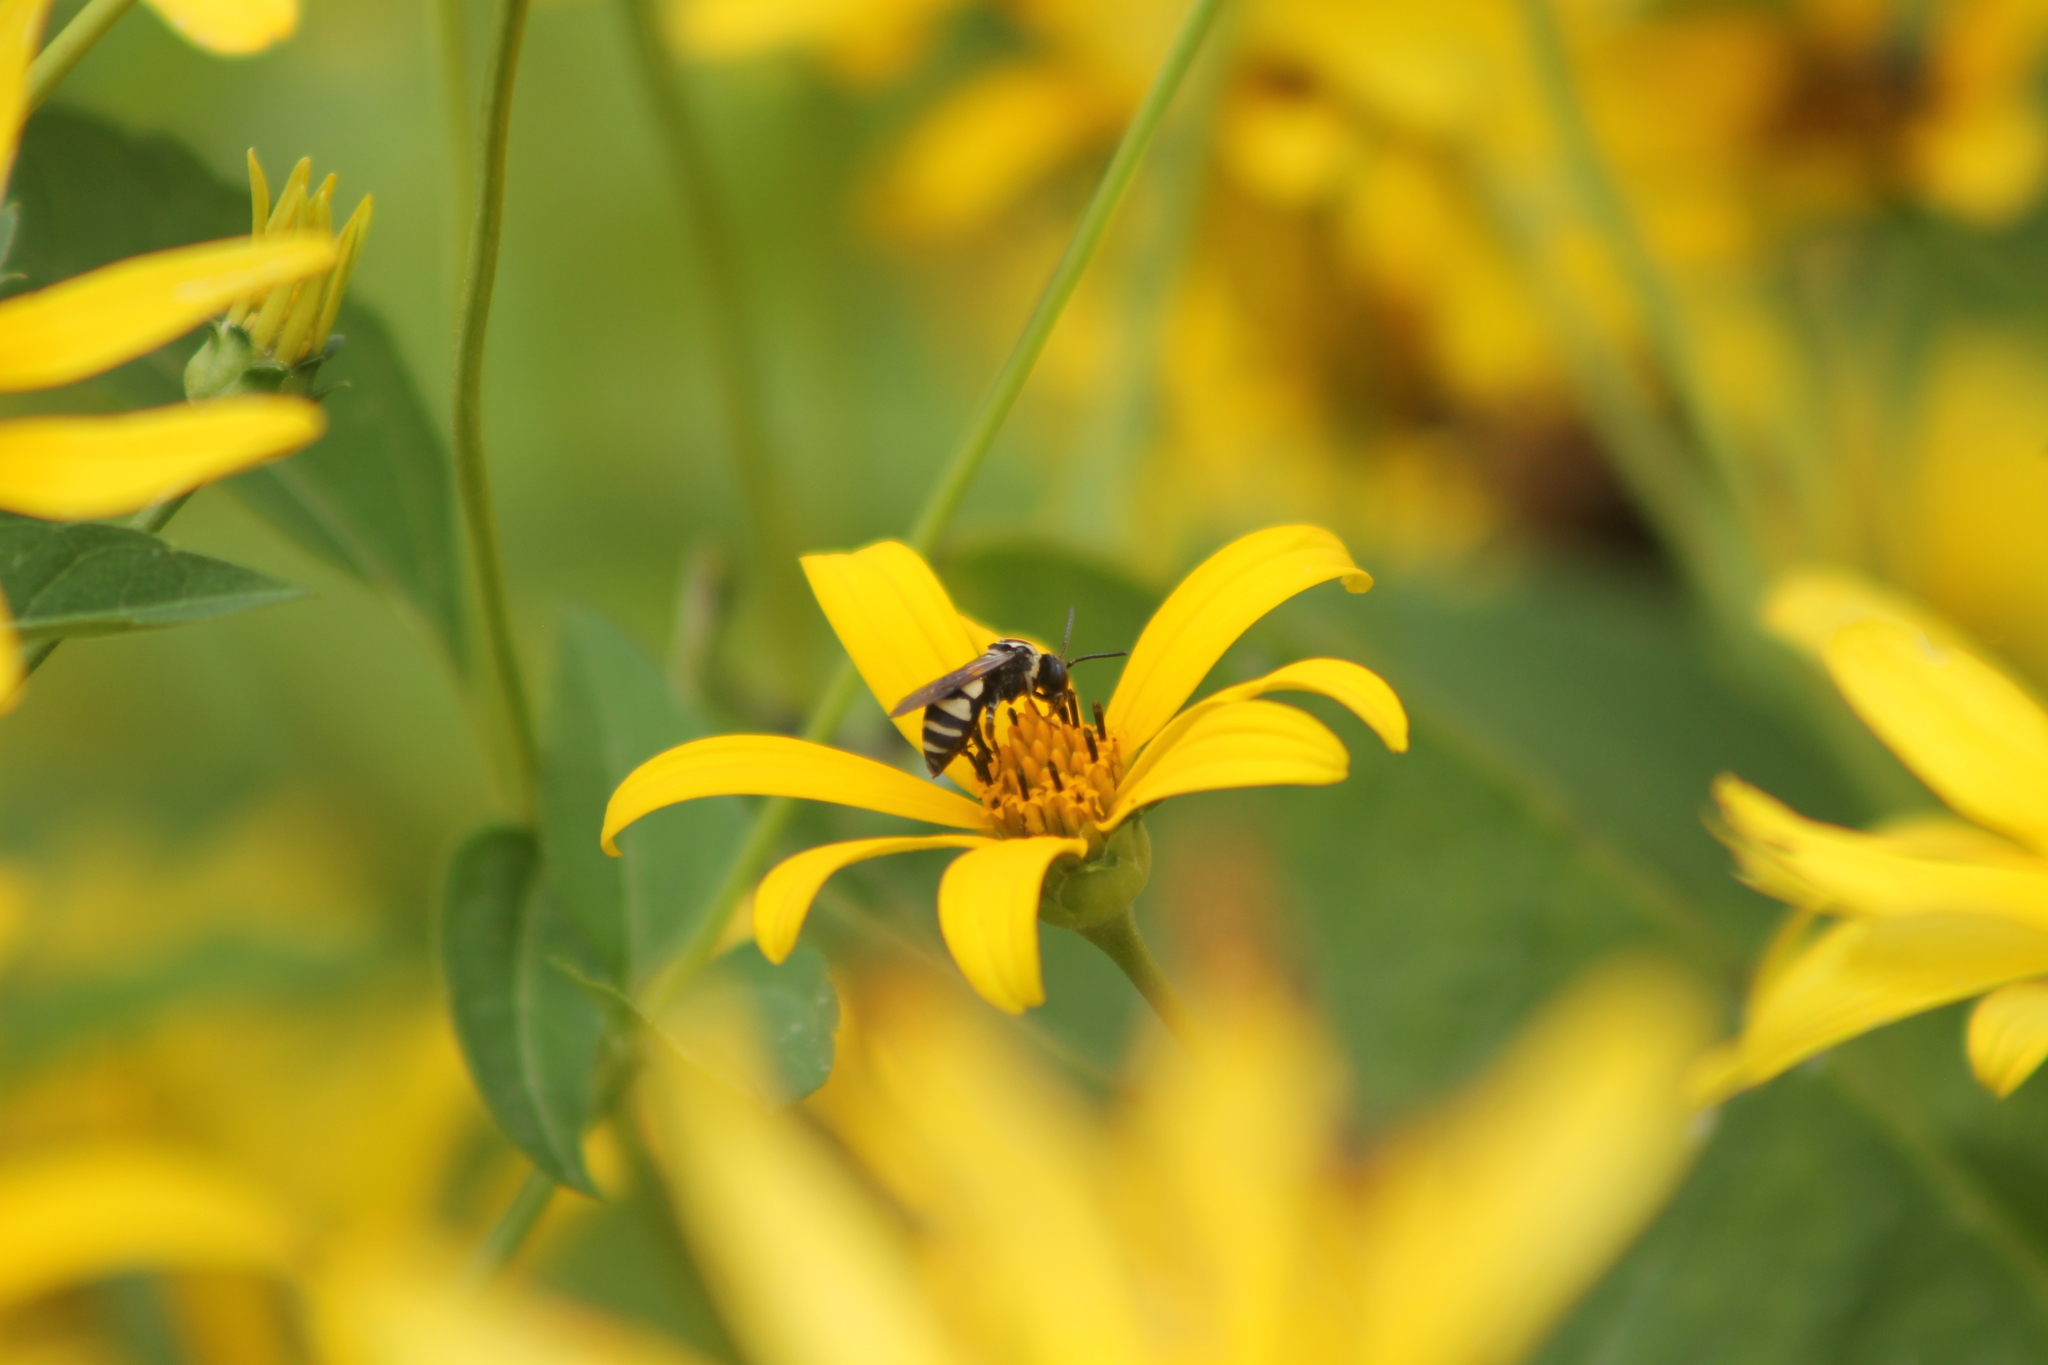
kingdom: Animalia
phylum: Arthropoda
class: Insecta
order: Hymenoptera
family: Apidae
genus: Triepeolus
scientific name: Triepeolus remigatus
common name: Squash longhorn-cuckoo
